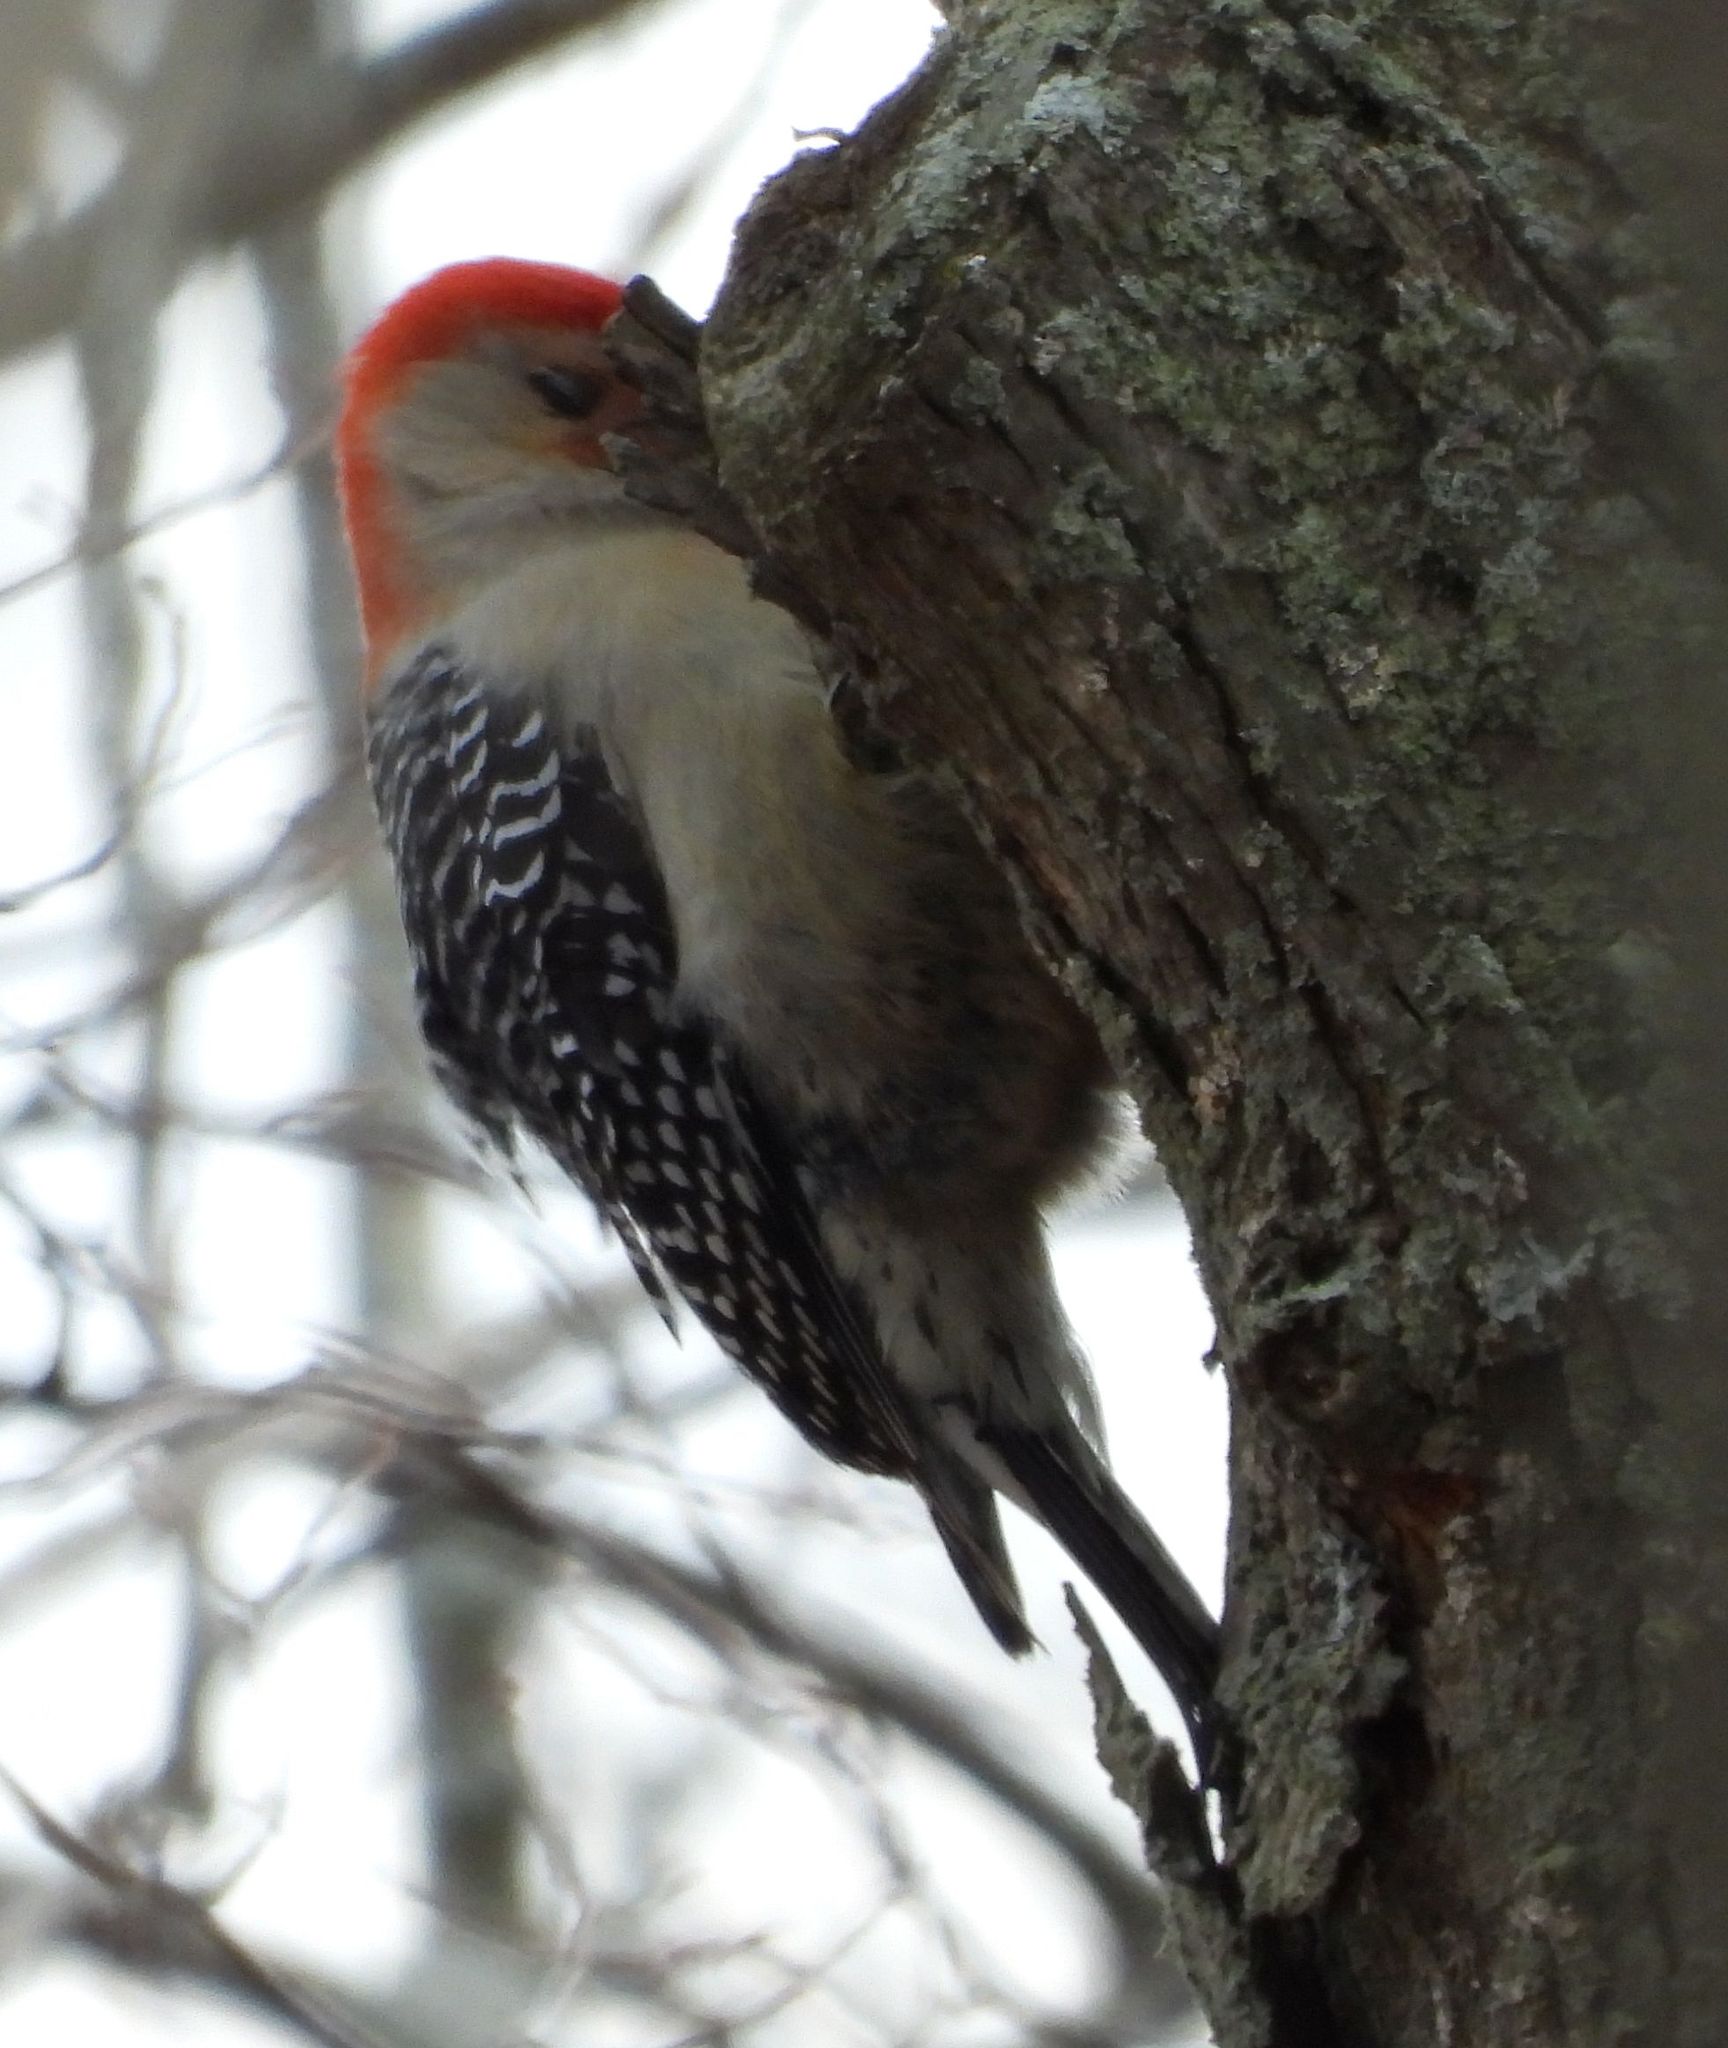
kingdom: Animalia
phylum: Chordata
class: Aves
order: Piciformes
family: Picidae
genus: Melanerpes
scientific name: Melanerpes carolinus
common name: Red-bellied woodpecker
